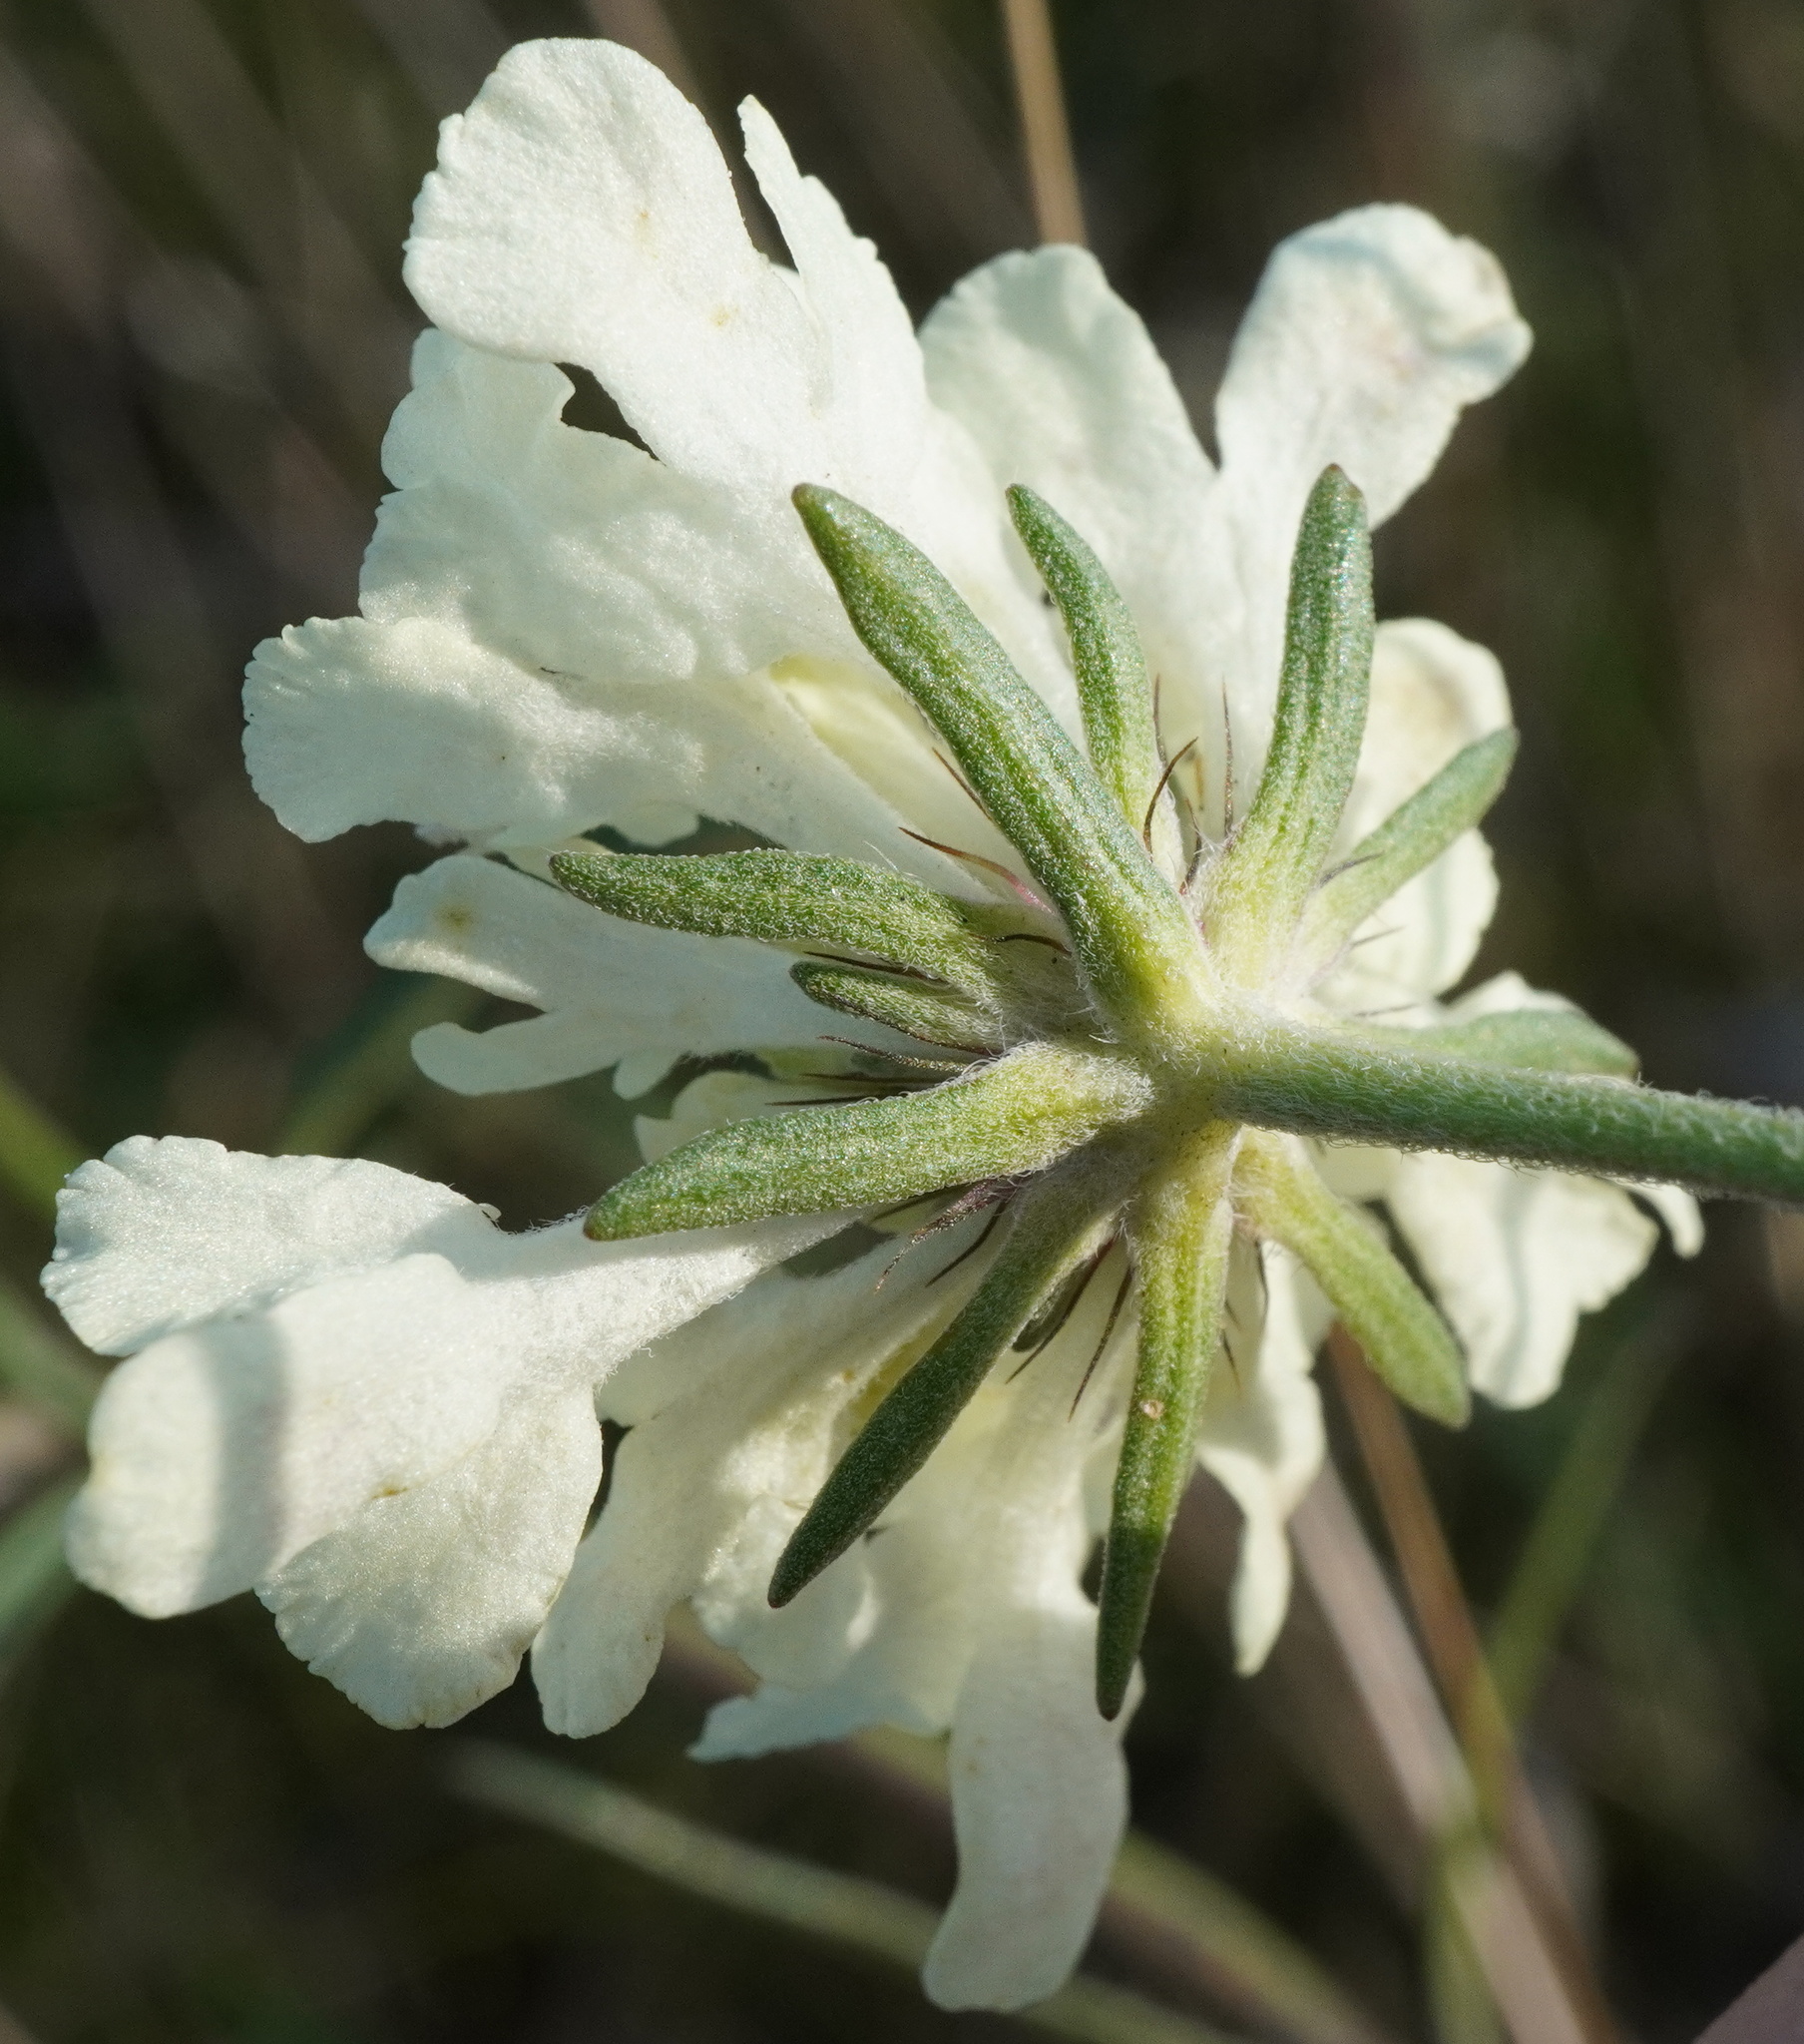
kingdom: Plantae
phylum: Tracheophyta
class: Magnoliopsida
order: Dipsacales
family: Caprifoliaceae
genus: Scabiosa
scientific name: Scabiosa ochroleuca
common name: Cream pincushions
